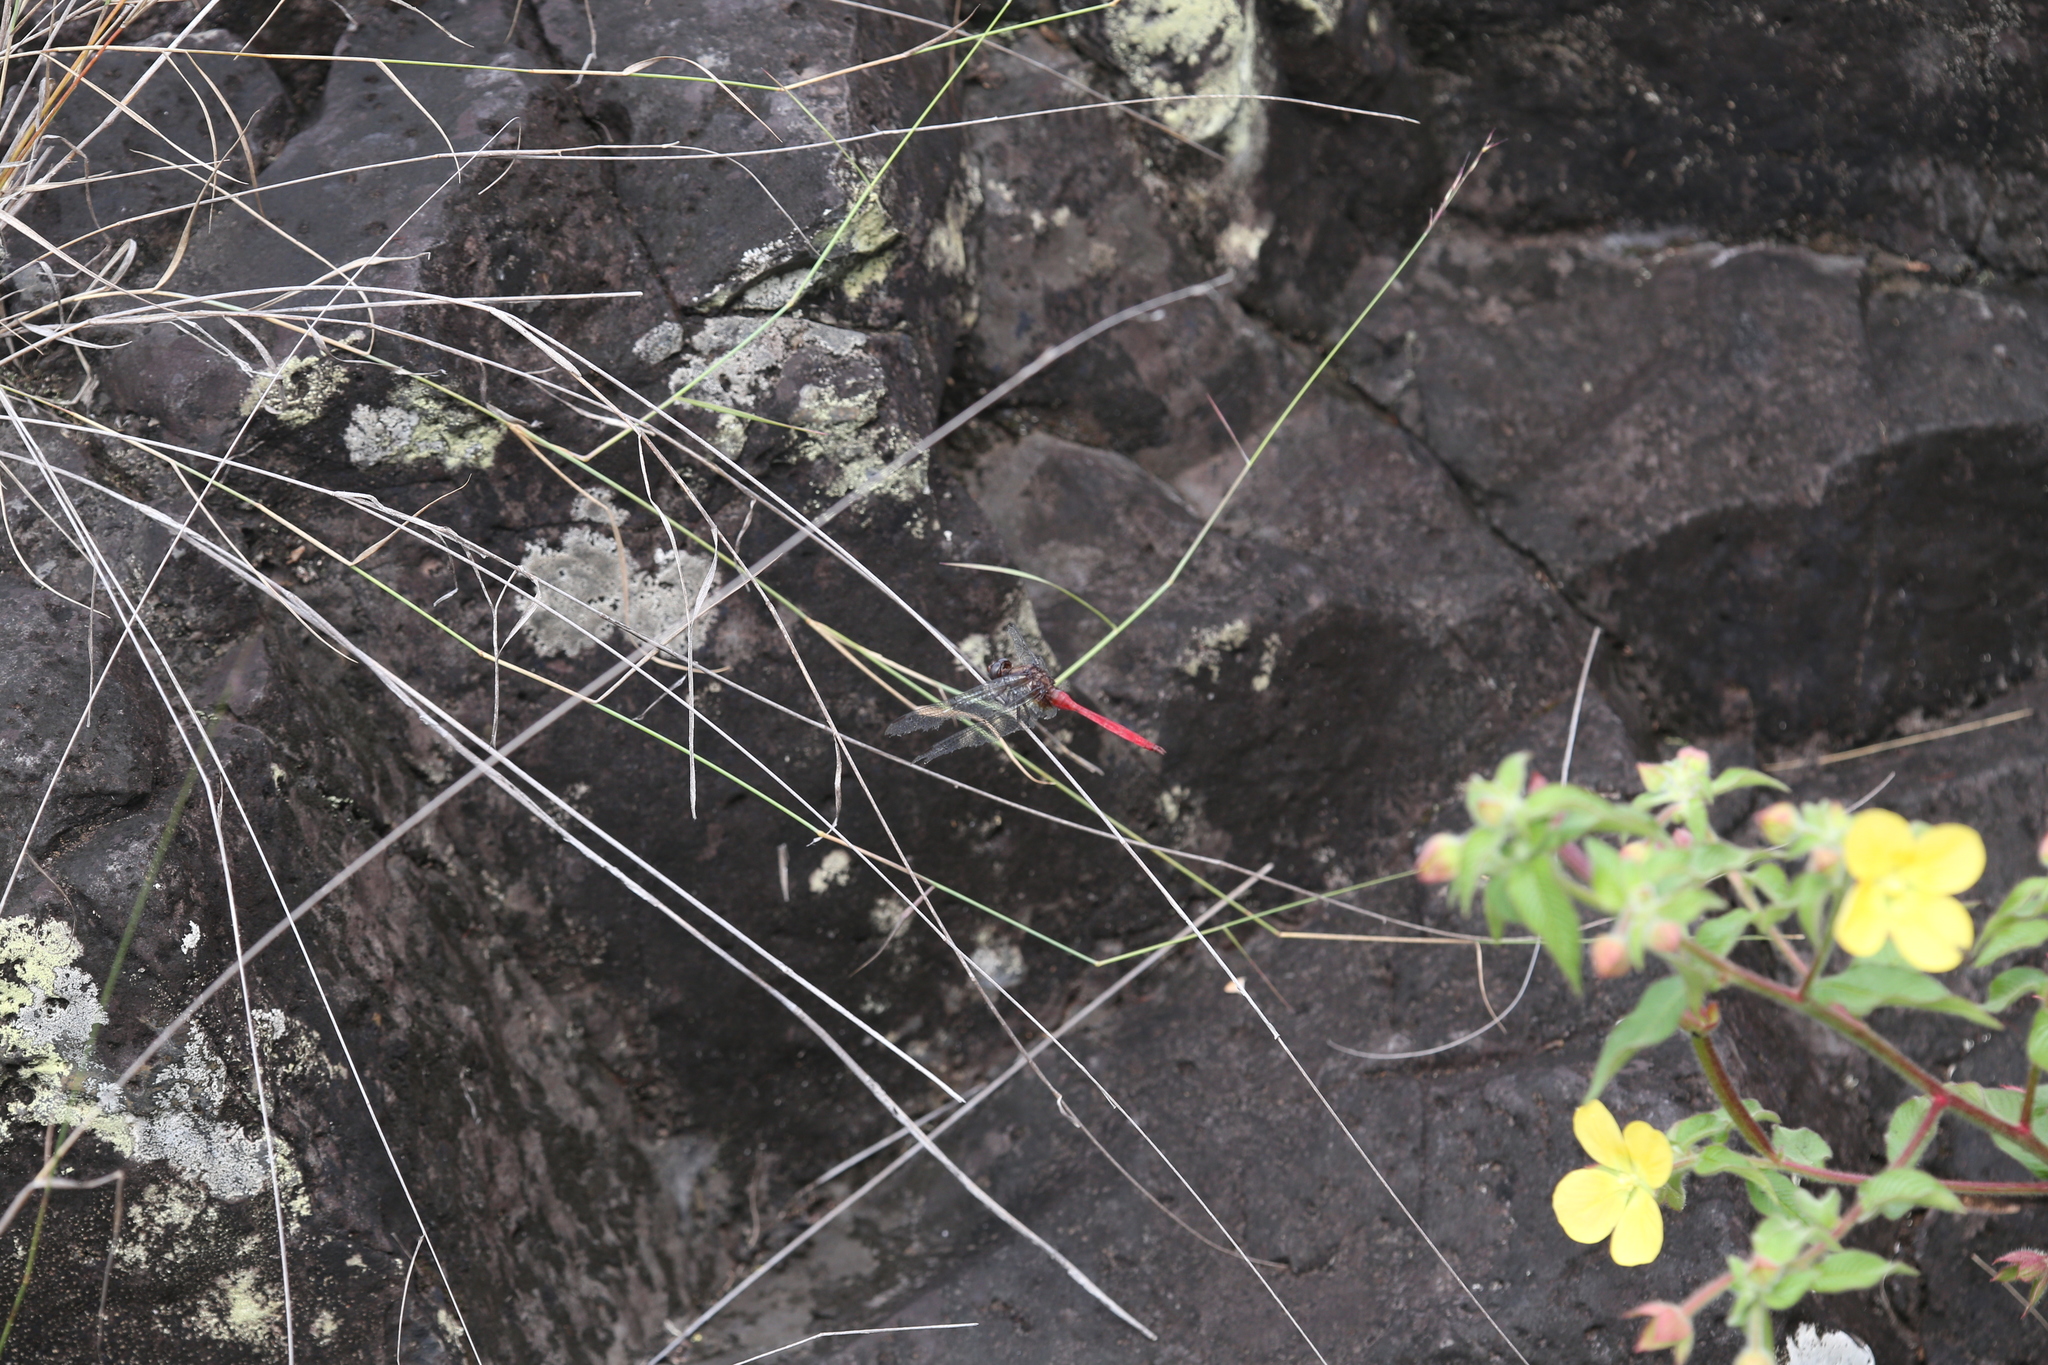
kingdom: Animalia
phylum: Arthropoda
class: Insecta
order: Odonata
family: Libellulidae
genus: Orthetrum
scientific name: Orthetrum villosovittatum
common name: Firery skimmer
